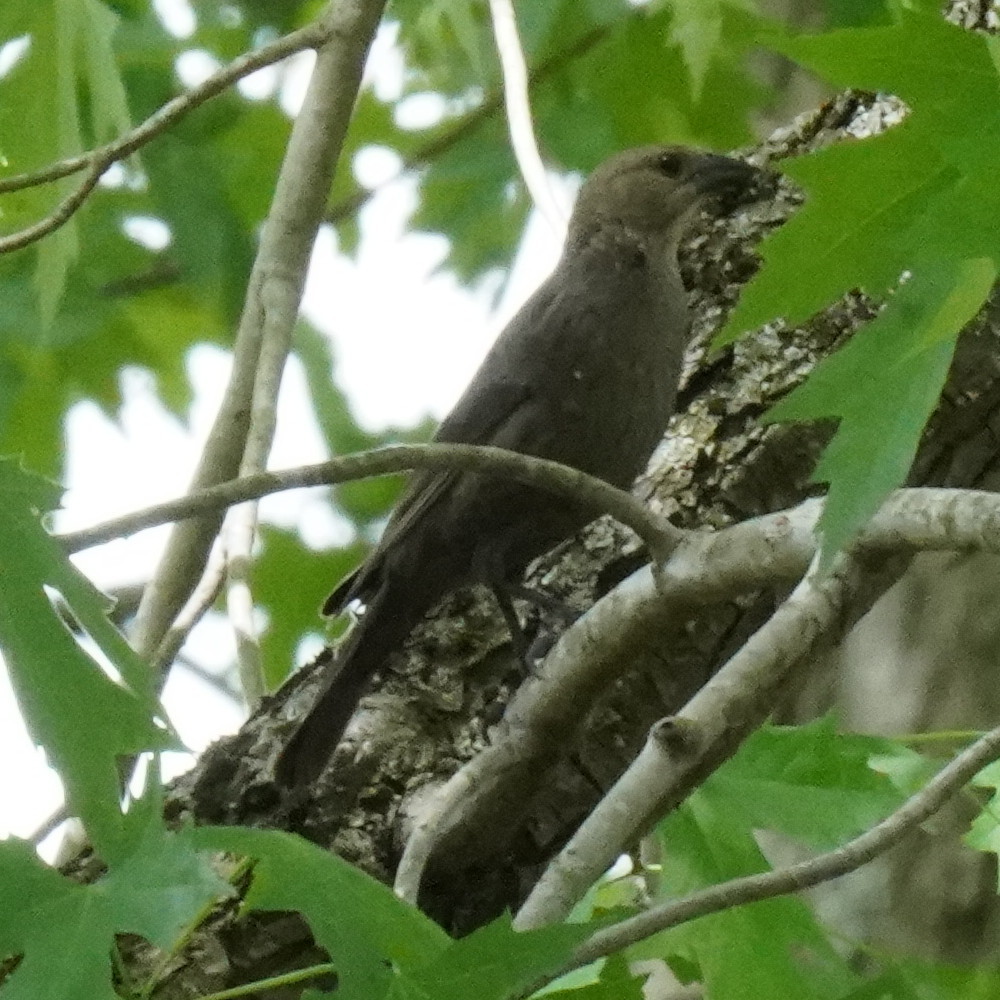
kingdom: Animalia
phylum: Chordata
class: Aves
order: Passeriformes
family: Icteridae
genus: Molothrus
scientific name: Molothrus ater
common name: Brown-headed cowbird
